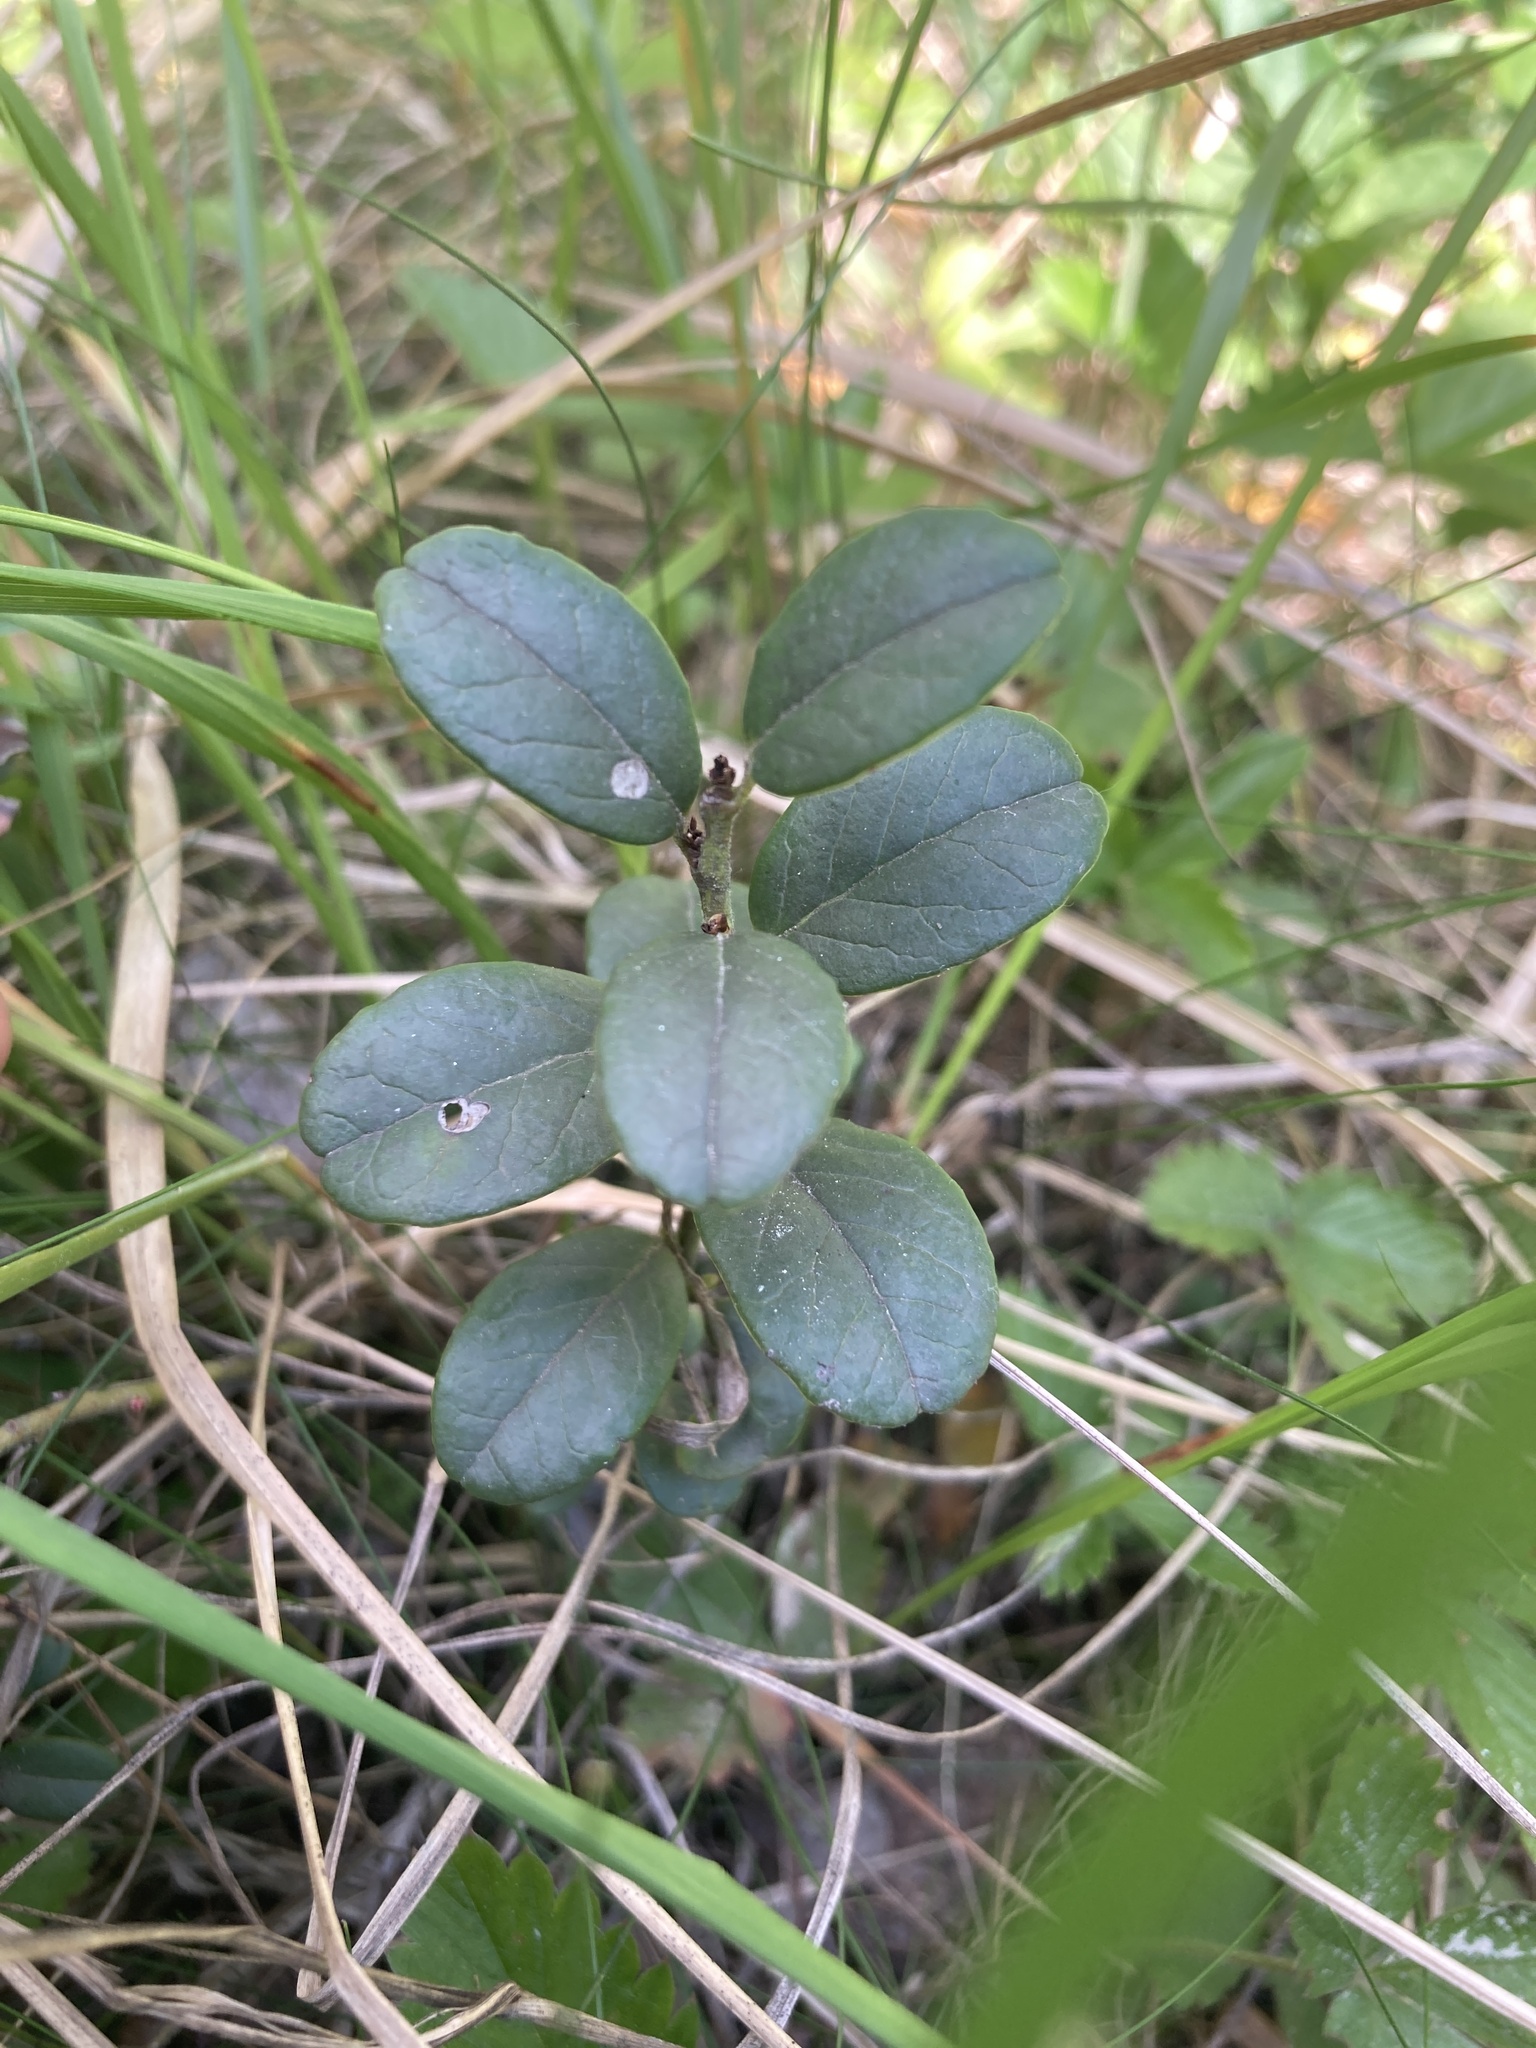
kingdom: Plantae
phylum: Tracheophyta
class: Magnoliopsida
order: Ericales
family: Ericaceae
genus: Vaccinium
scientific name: Vaccinium vitis-idaea
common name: Cowberry
